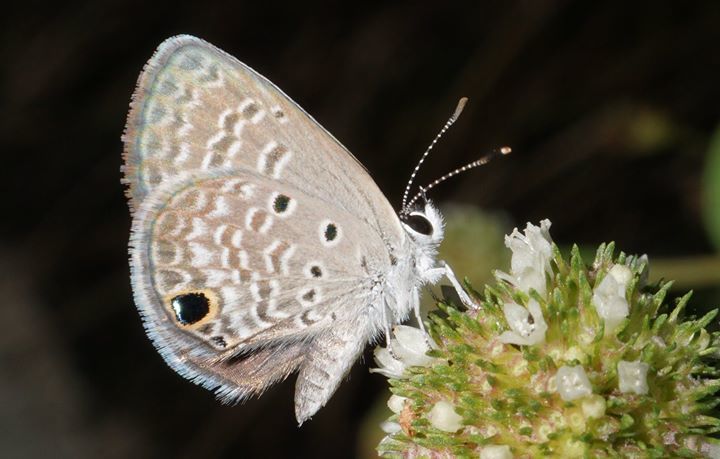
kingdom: Animalia
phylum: Arthropoda
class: Insecta
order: Lepidoptera
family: Lycaenidae
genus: Hemiargus
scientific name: Hemiargus ceraunus
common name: Ceraunus blue
